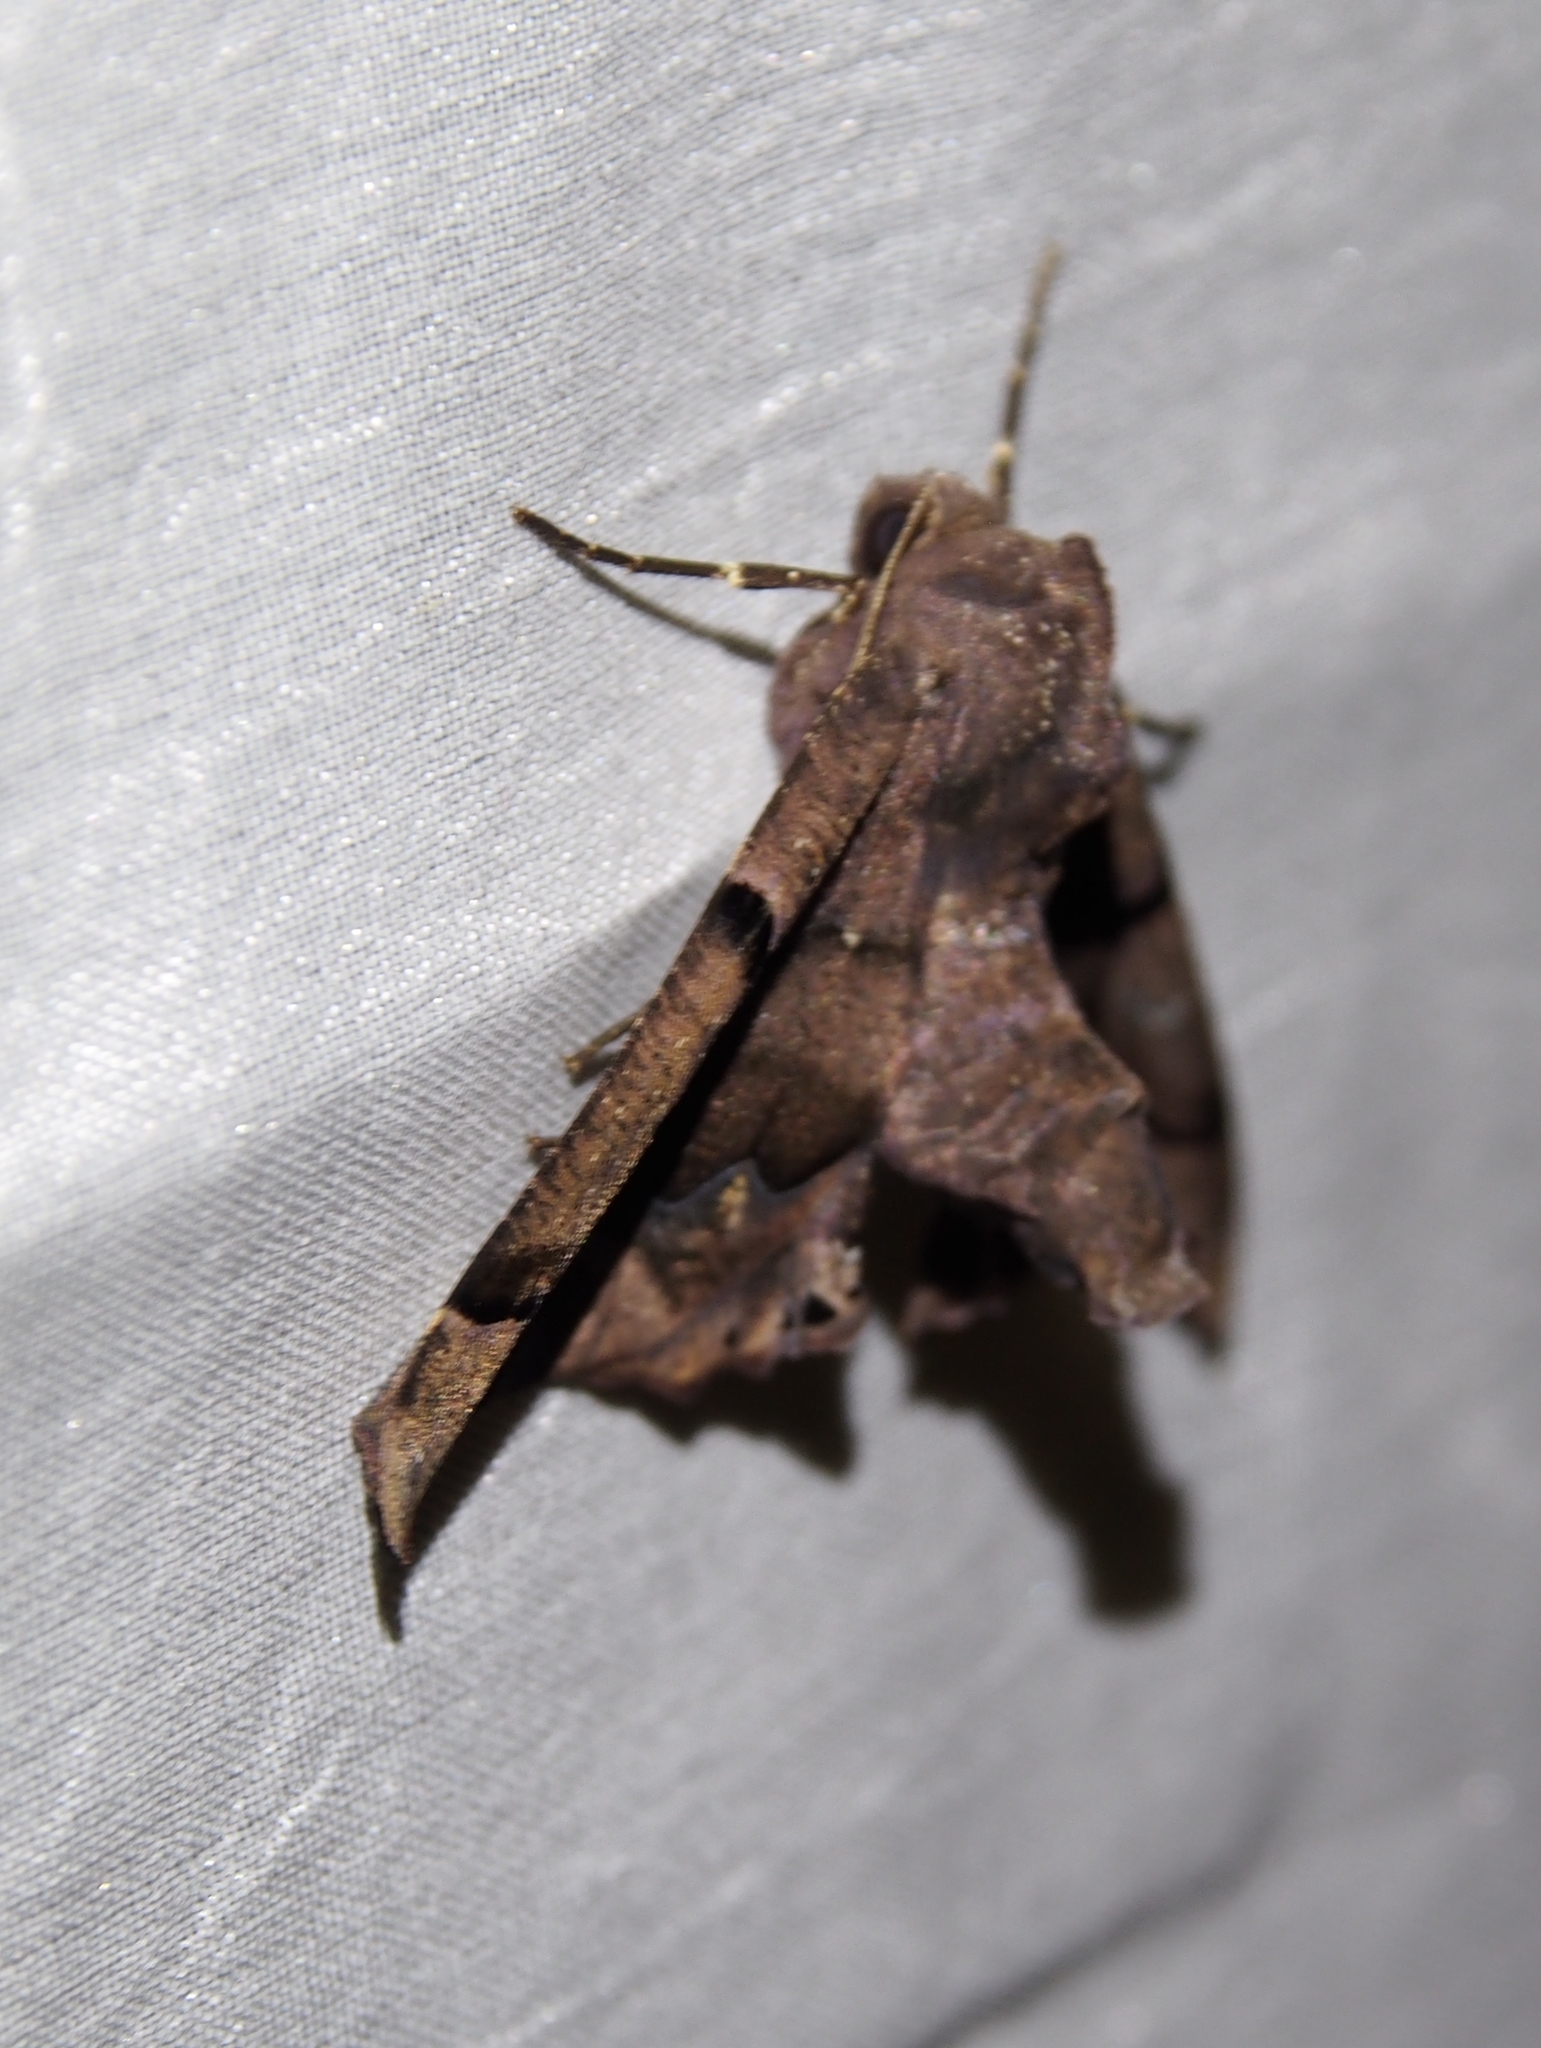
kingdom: Animalia
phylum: Arthropoda
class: Insecta
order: Lepidoptera
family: Geometridae
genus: Pero
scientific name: Pero saturata
